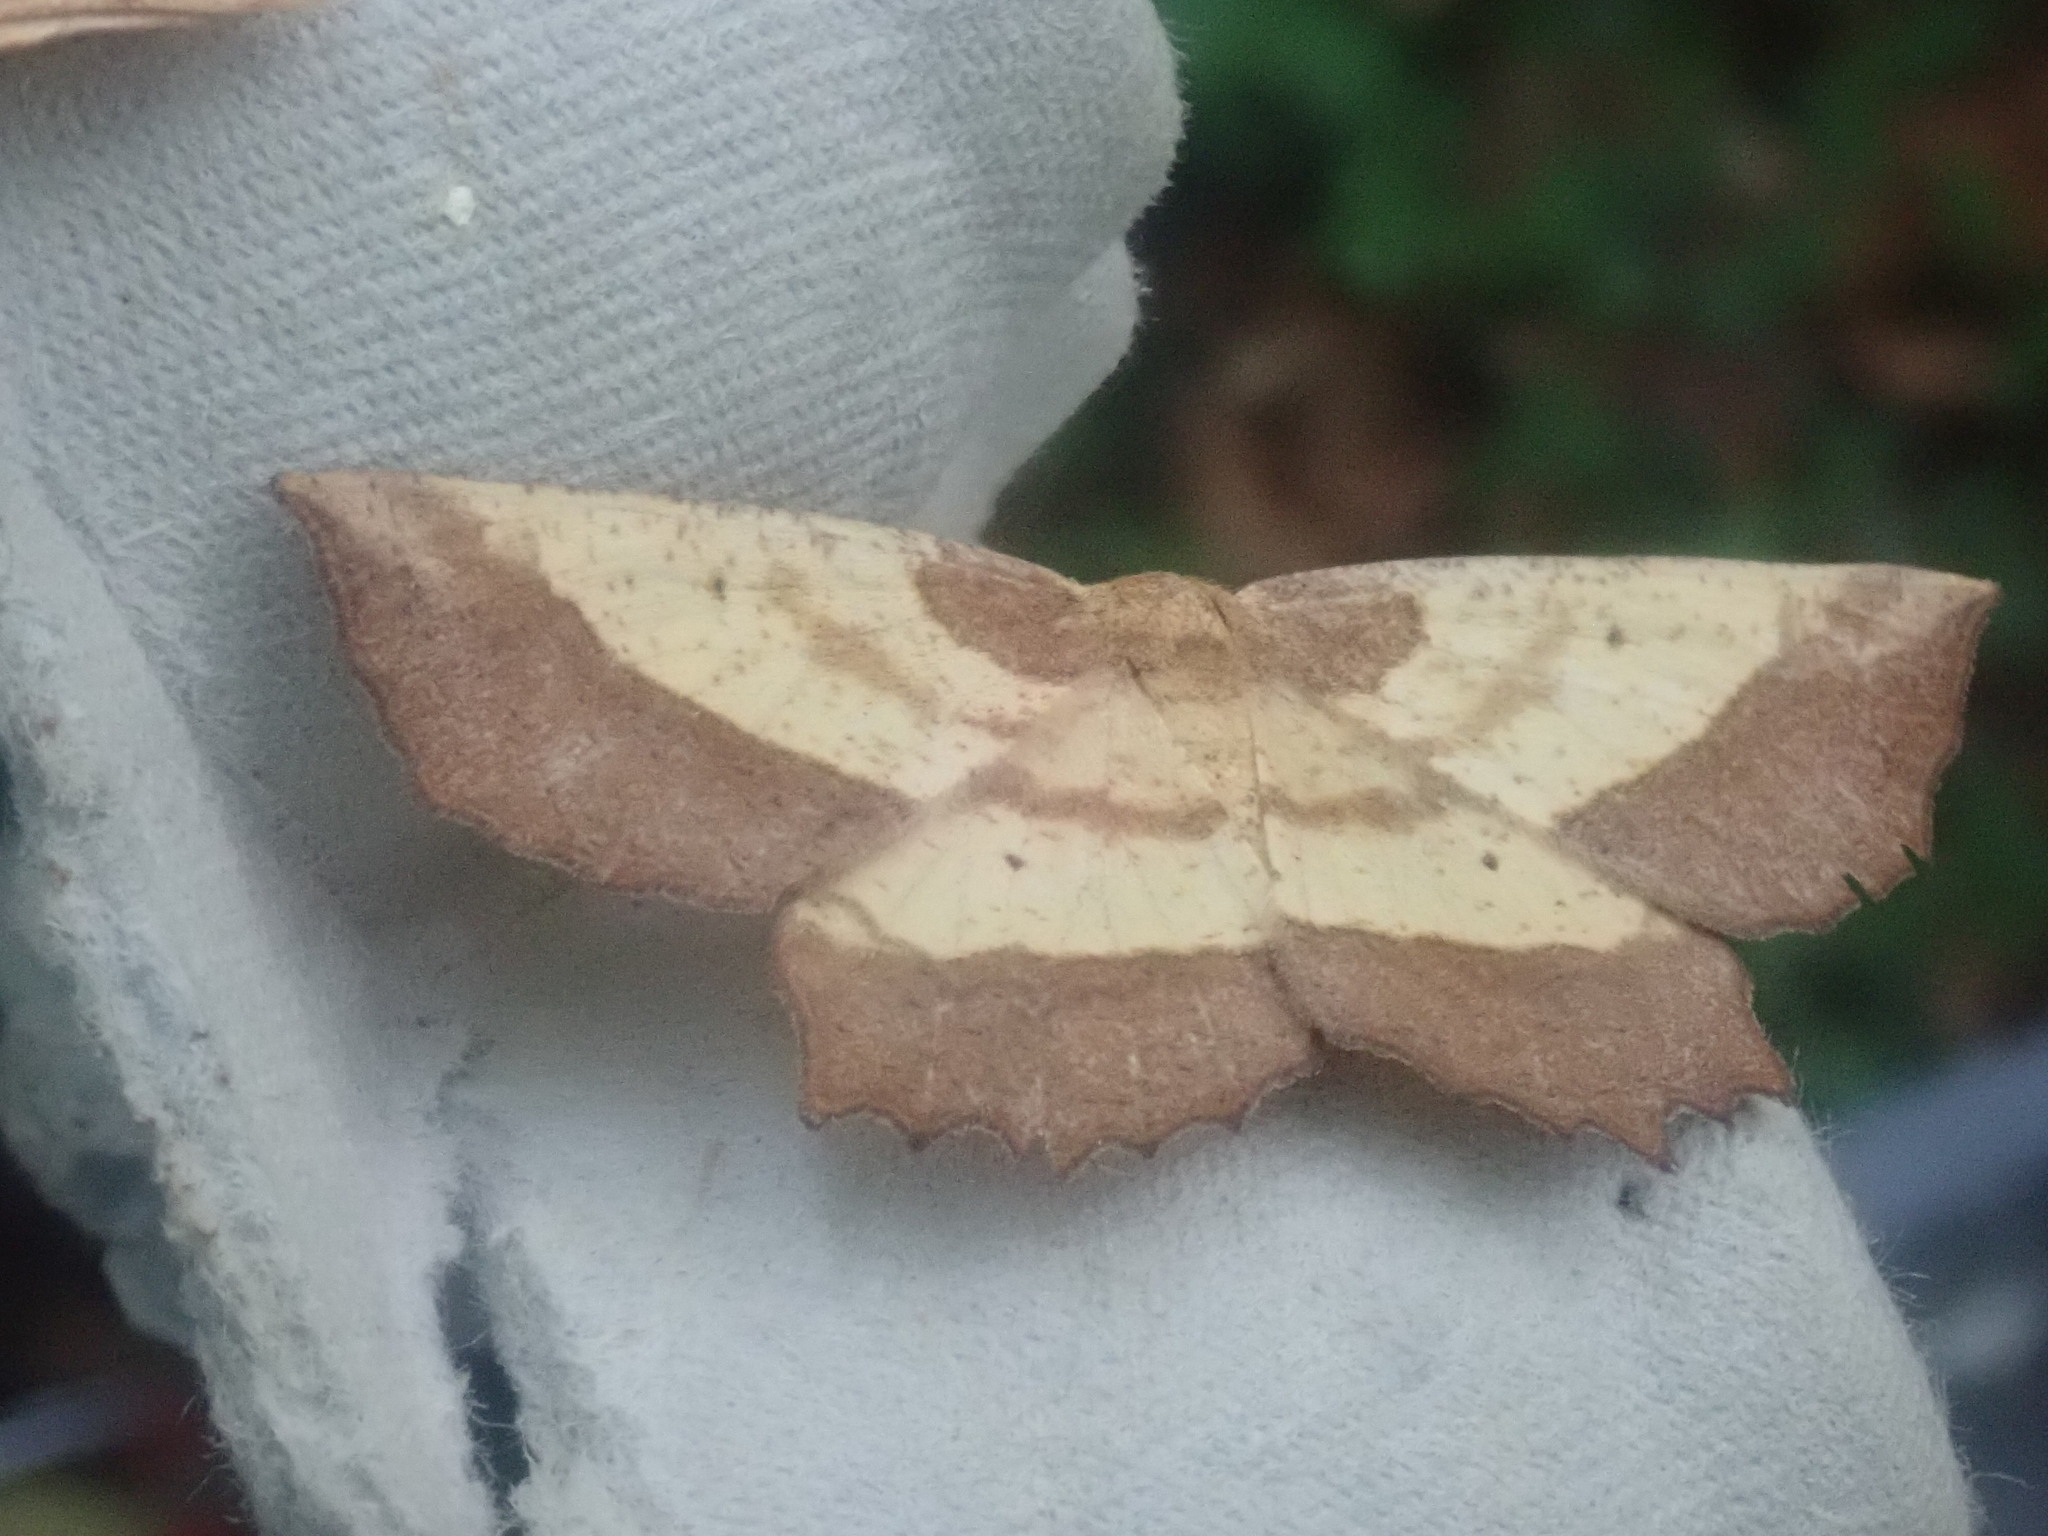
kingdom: Animalia
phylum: Arthropoda
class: Insecta
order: Lepidoptera
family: Geometridae
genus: Euchlaena
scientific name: Euchlaena serrata
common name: Saw wing
